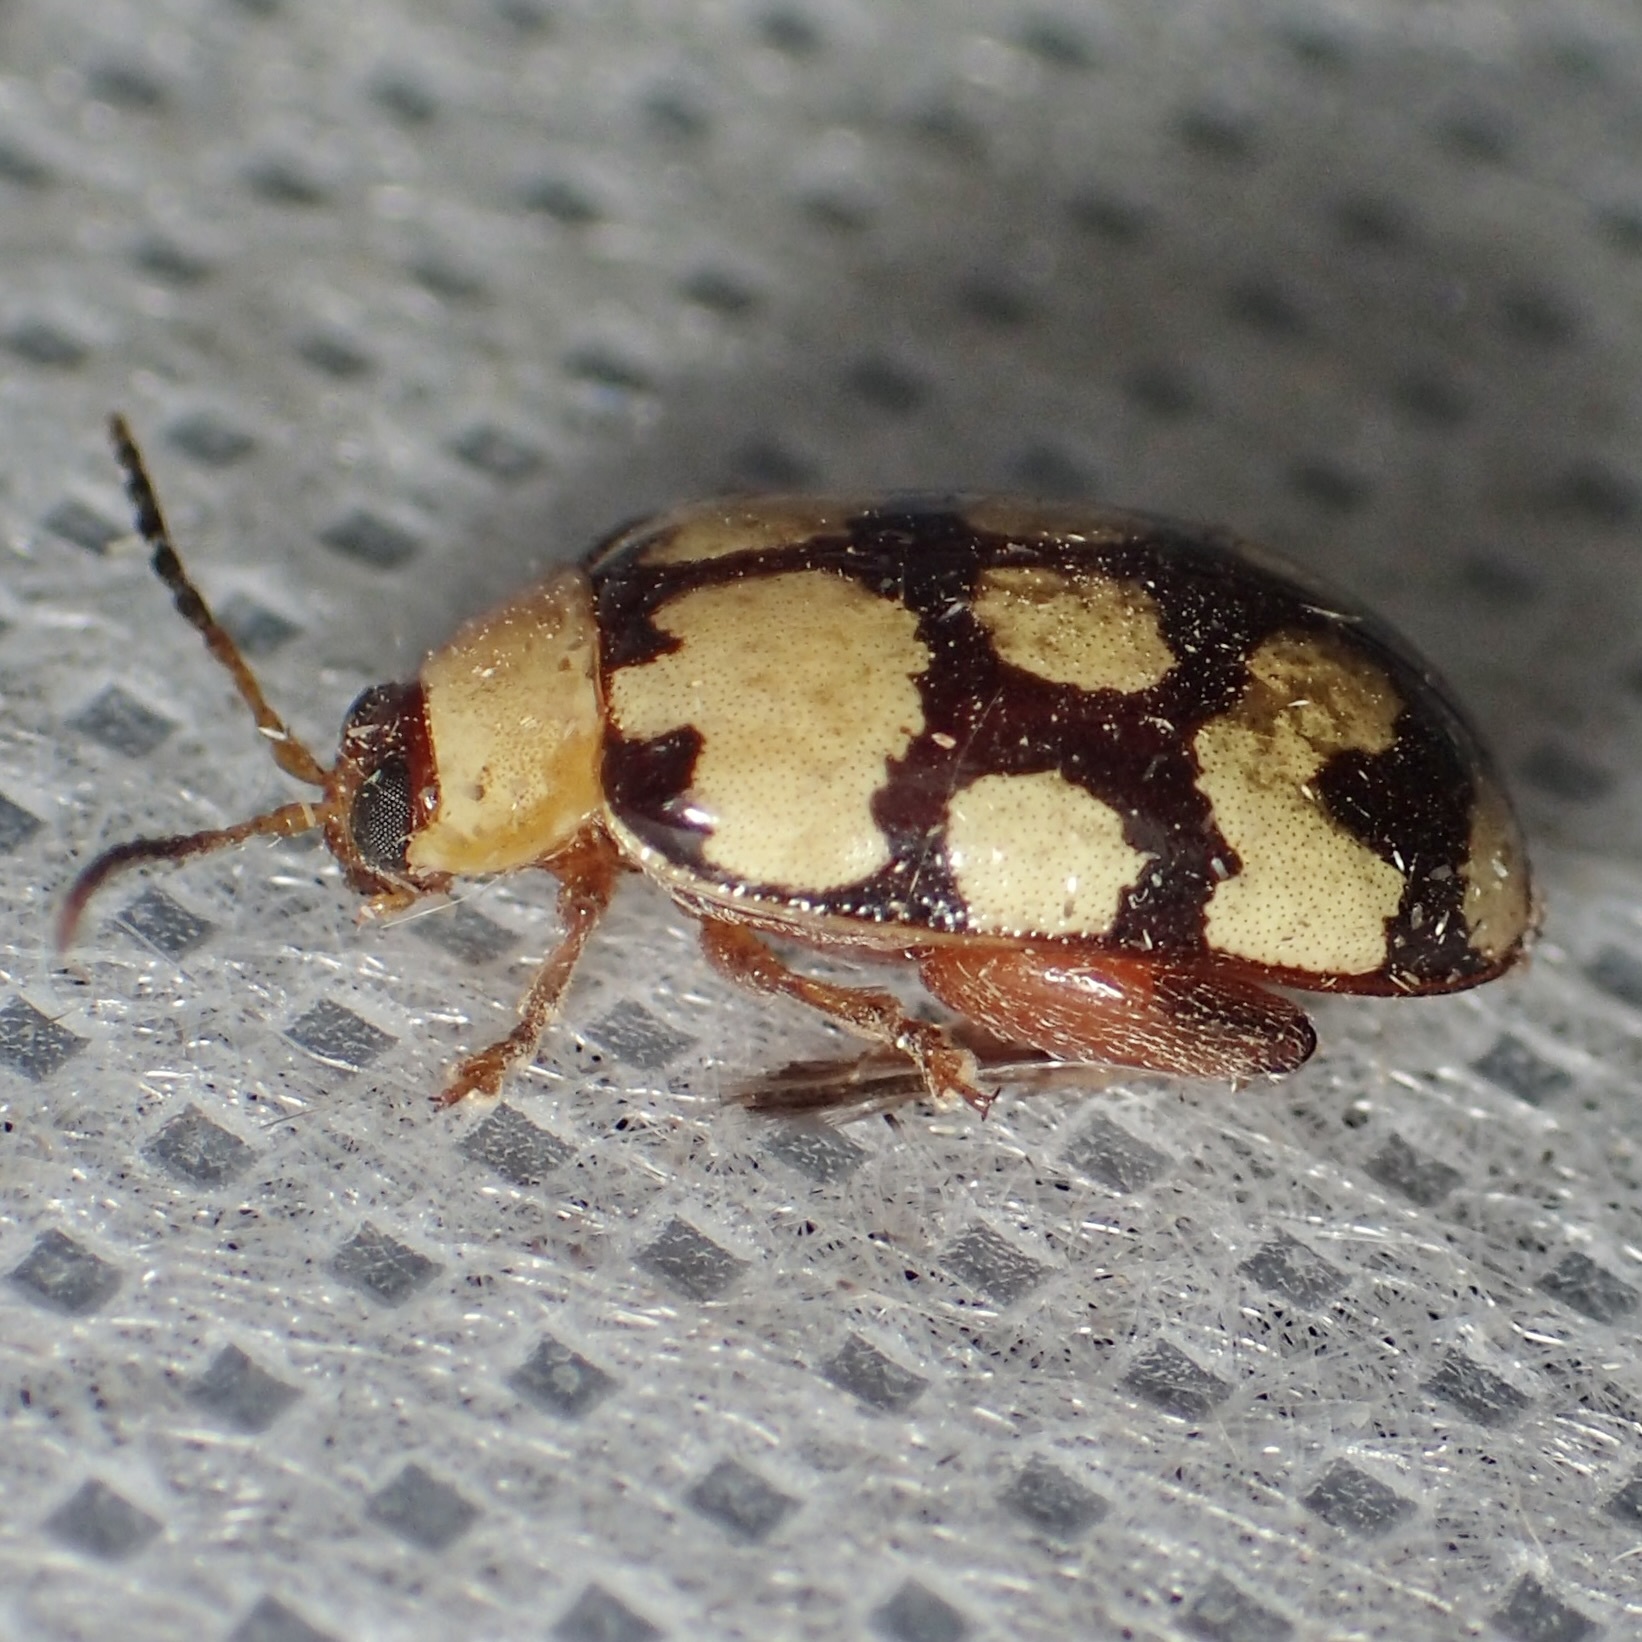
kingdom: Animalia
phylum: Arthropoda
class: Insecta
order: Coleoptera
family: Chrysomelidae
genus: Alagoasa
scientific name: Alagoasa
